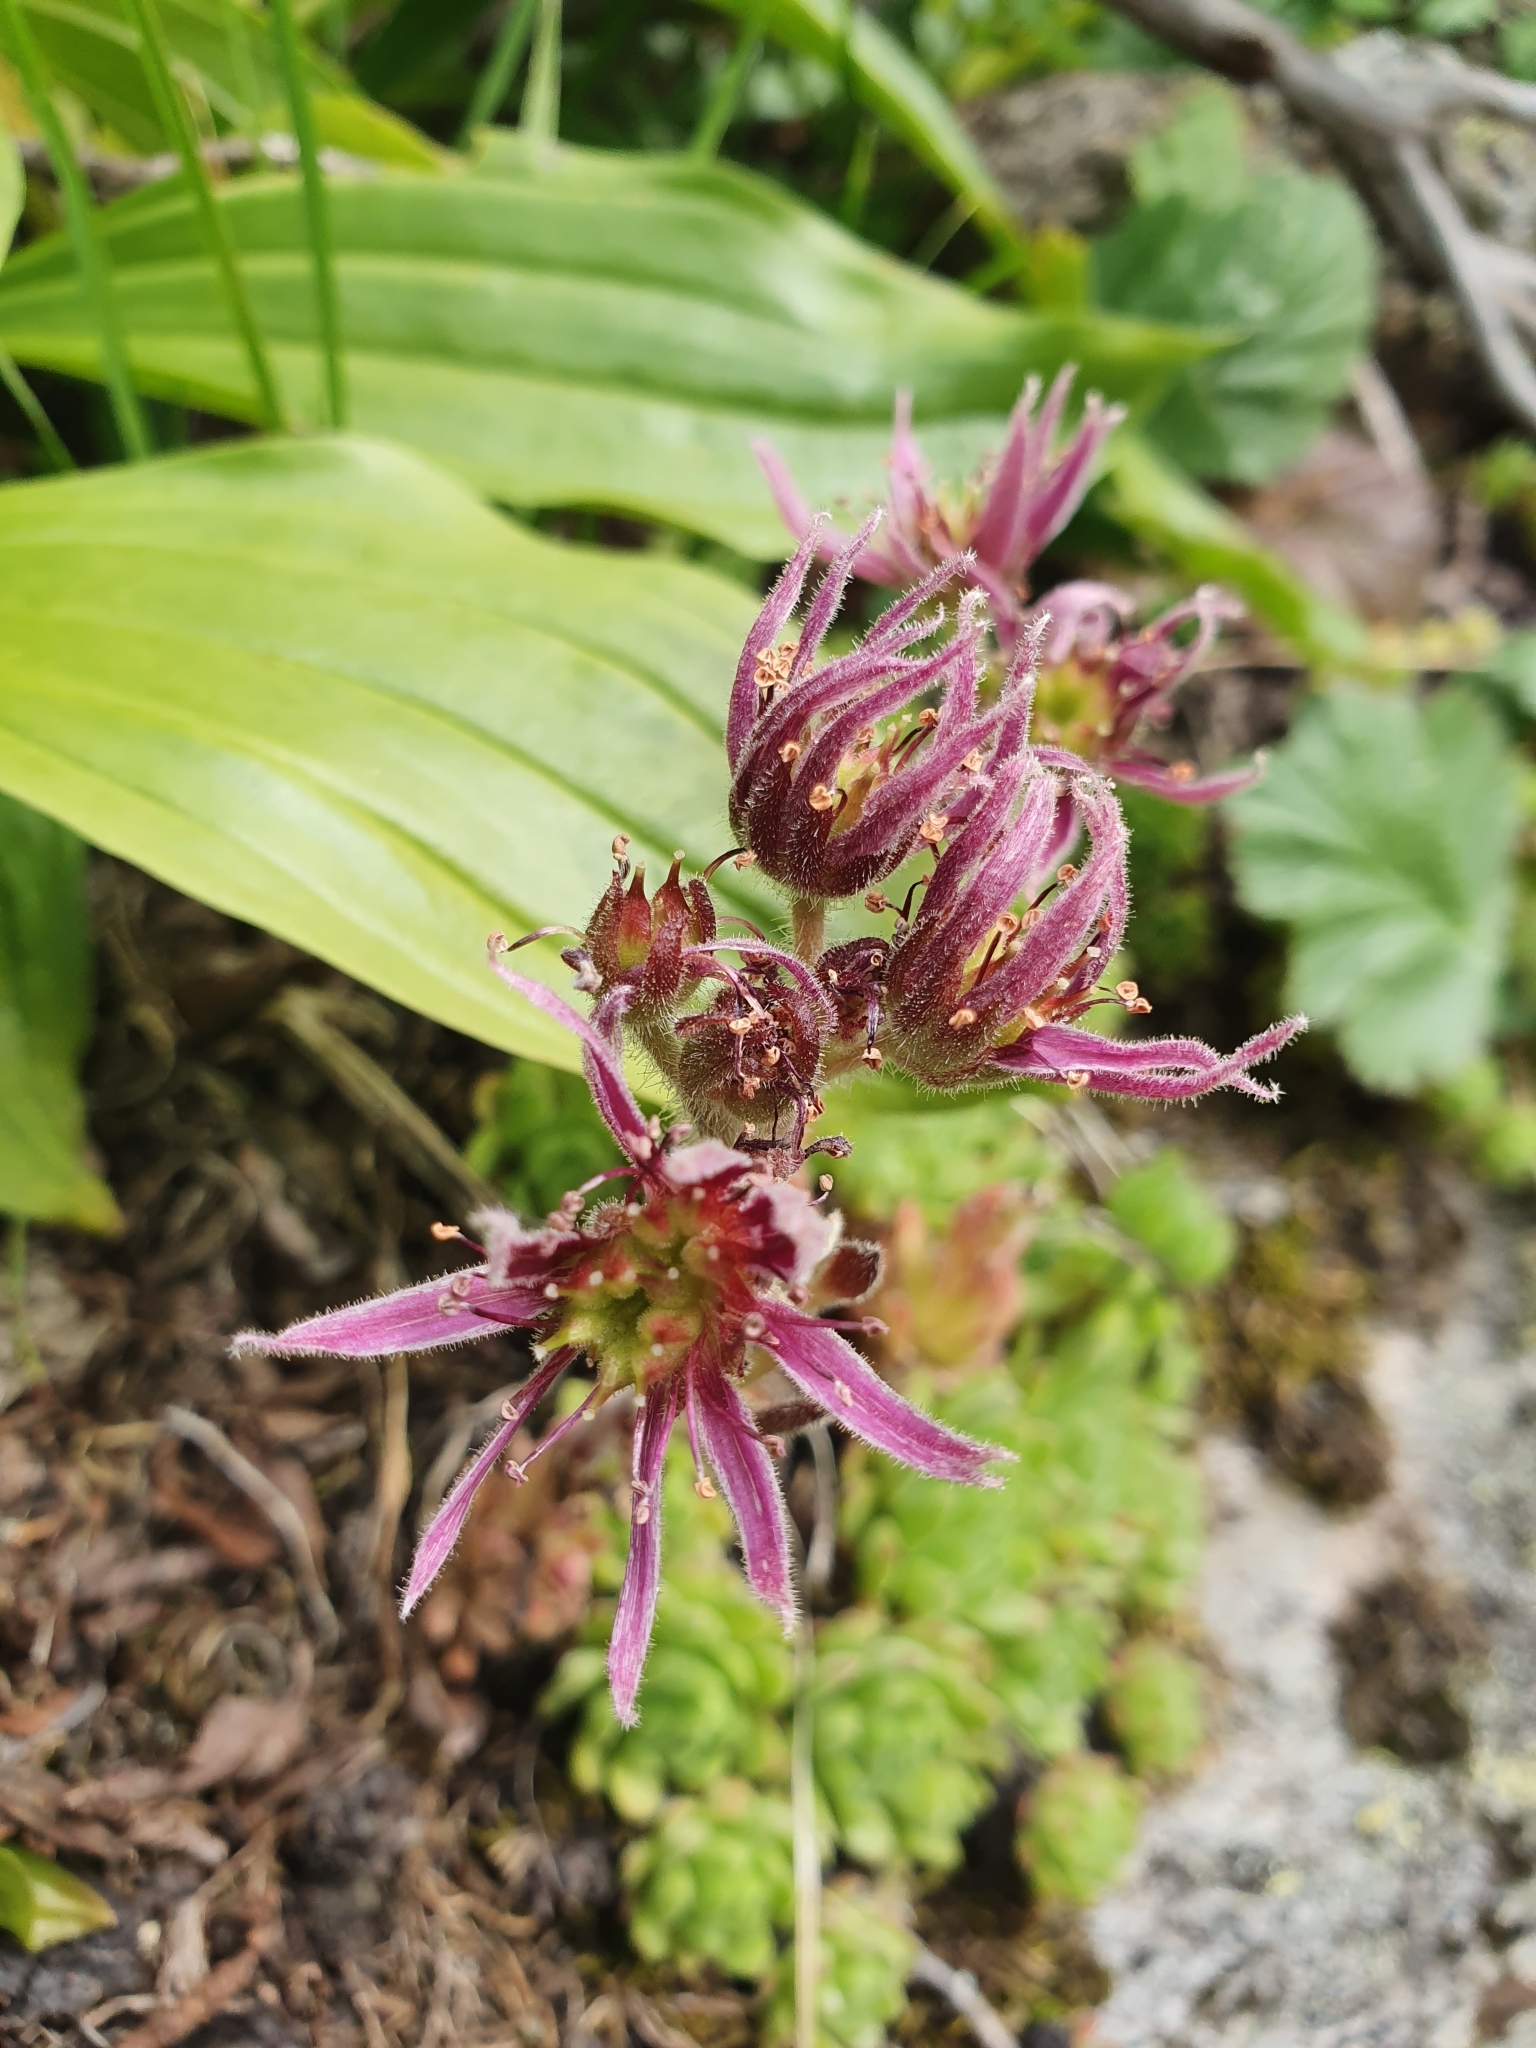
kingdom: Plantae
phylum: Tracheophyta
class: Magnoliopsida
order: Saxifragales
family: Crassulaceae
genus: Sempervivum
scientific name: Sempervivum montanum
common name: Mountain house-leek
